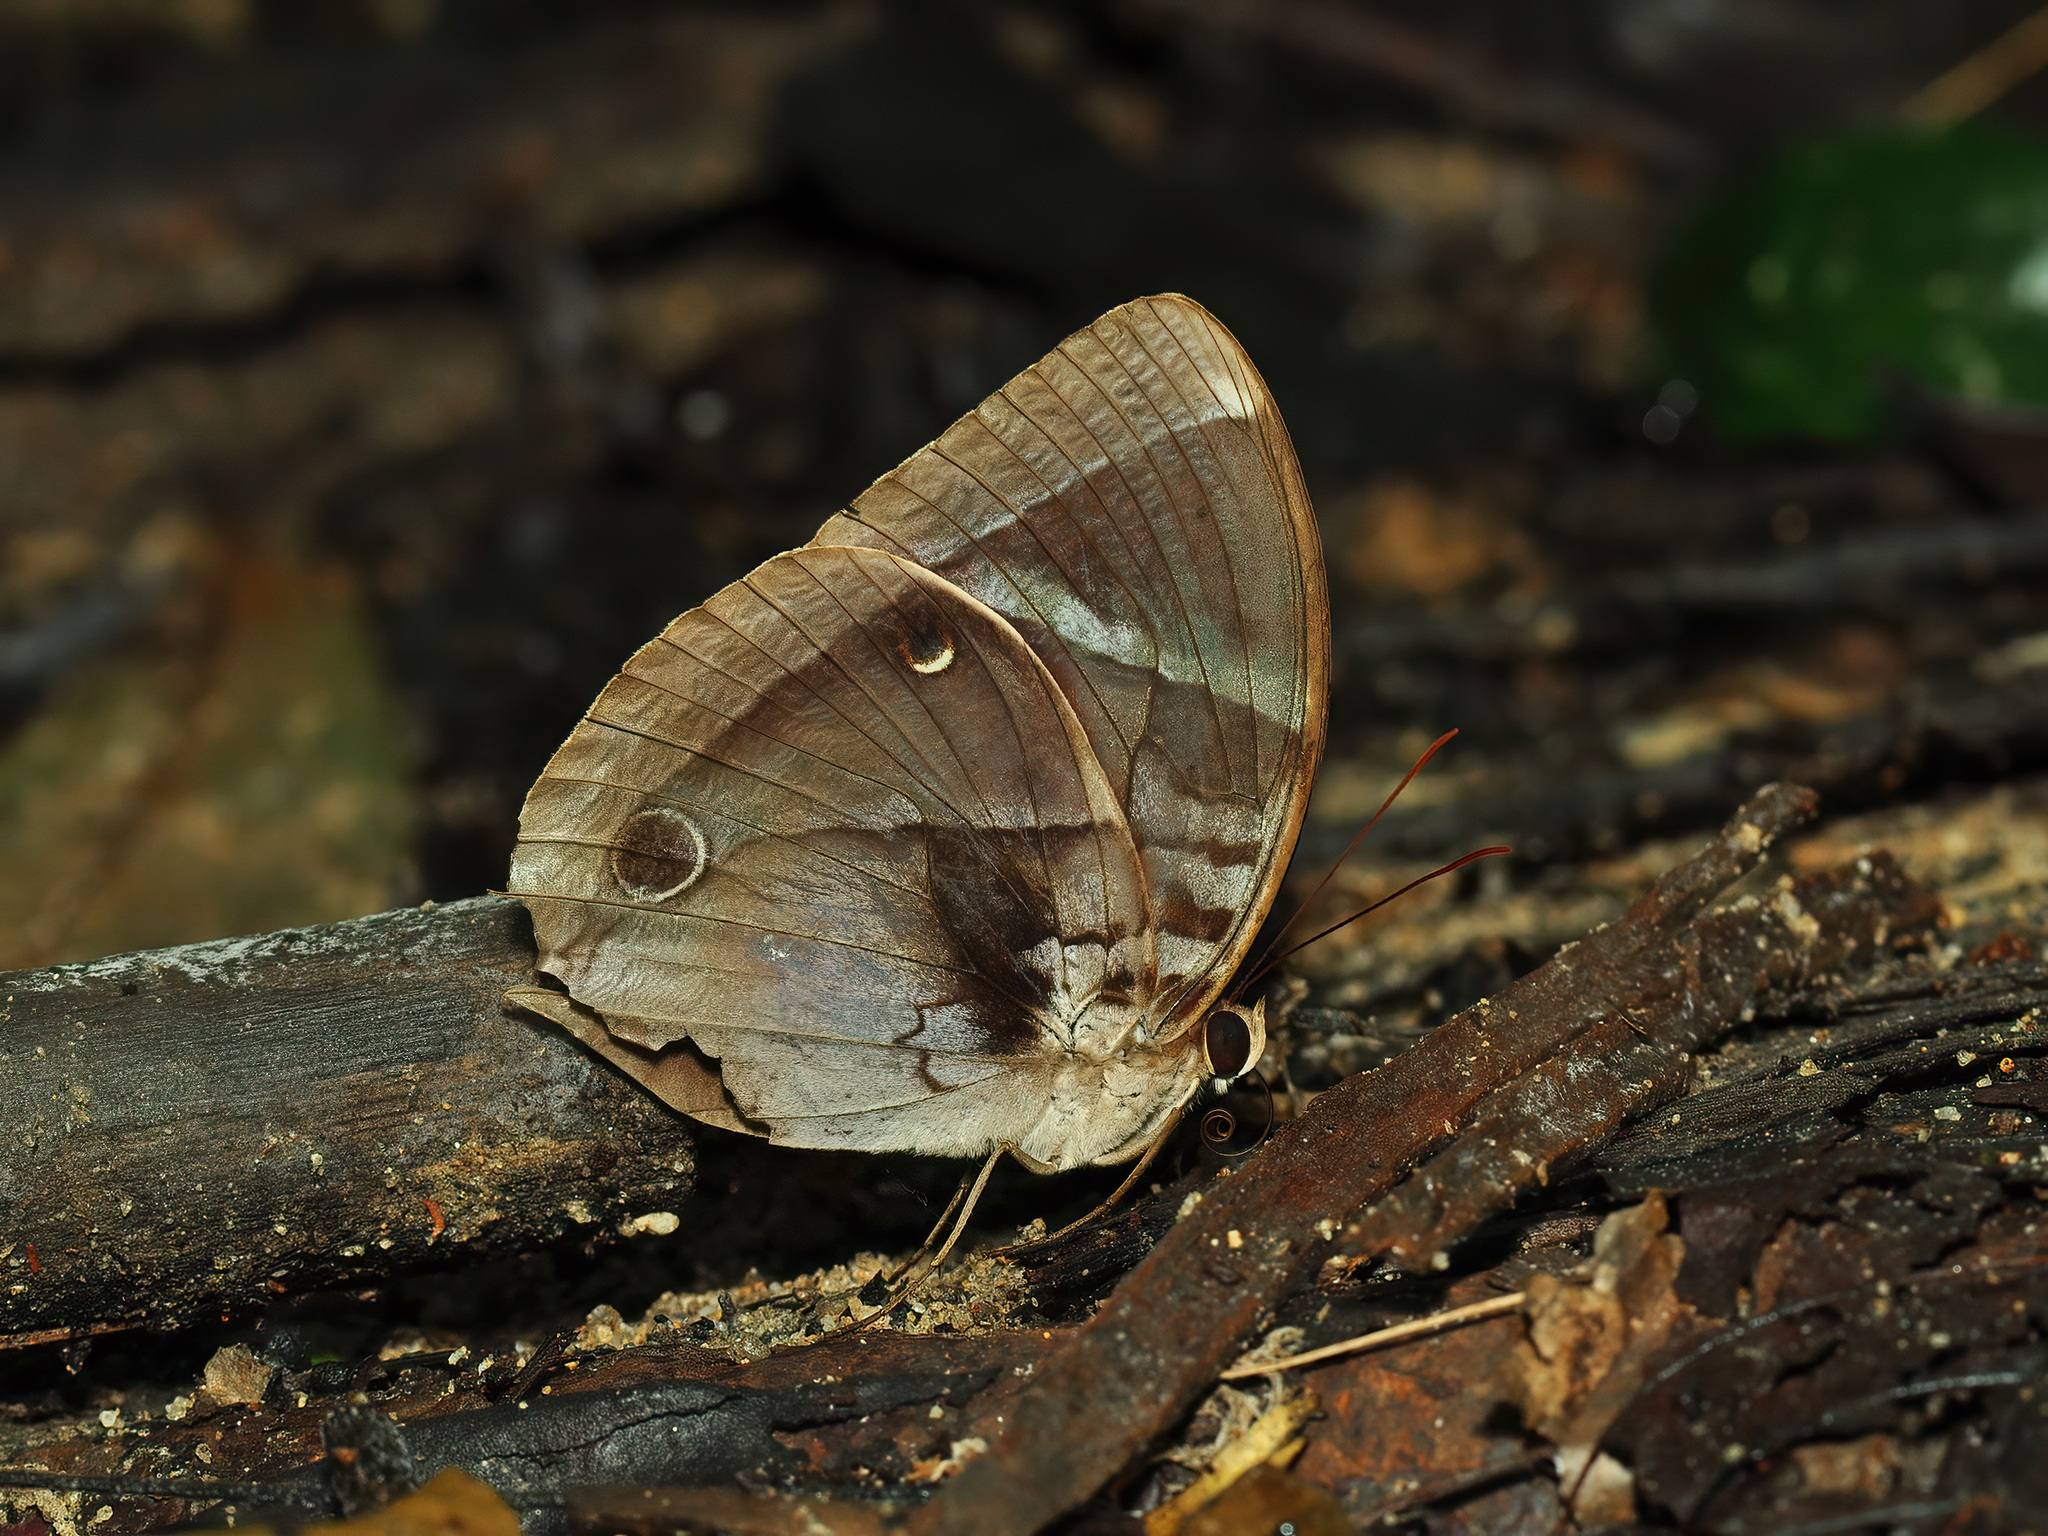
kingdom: Animalia
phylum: Arthropoda
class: Insecta
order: Lepidoptera
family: Nymphalidae
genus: Thaumantis
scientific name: Thaumantis odana
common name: Malayan jungle glory
